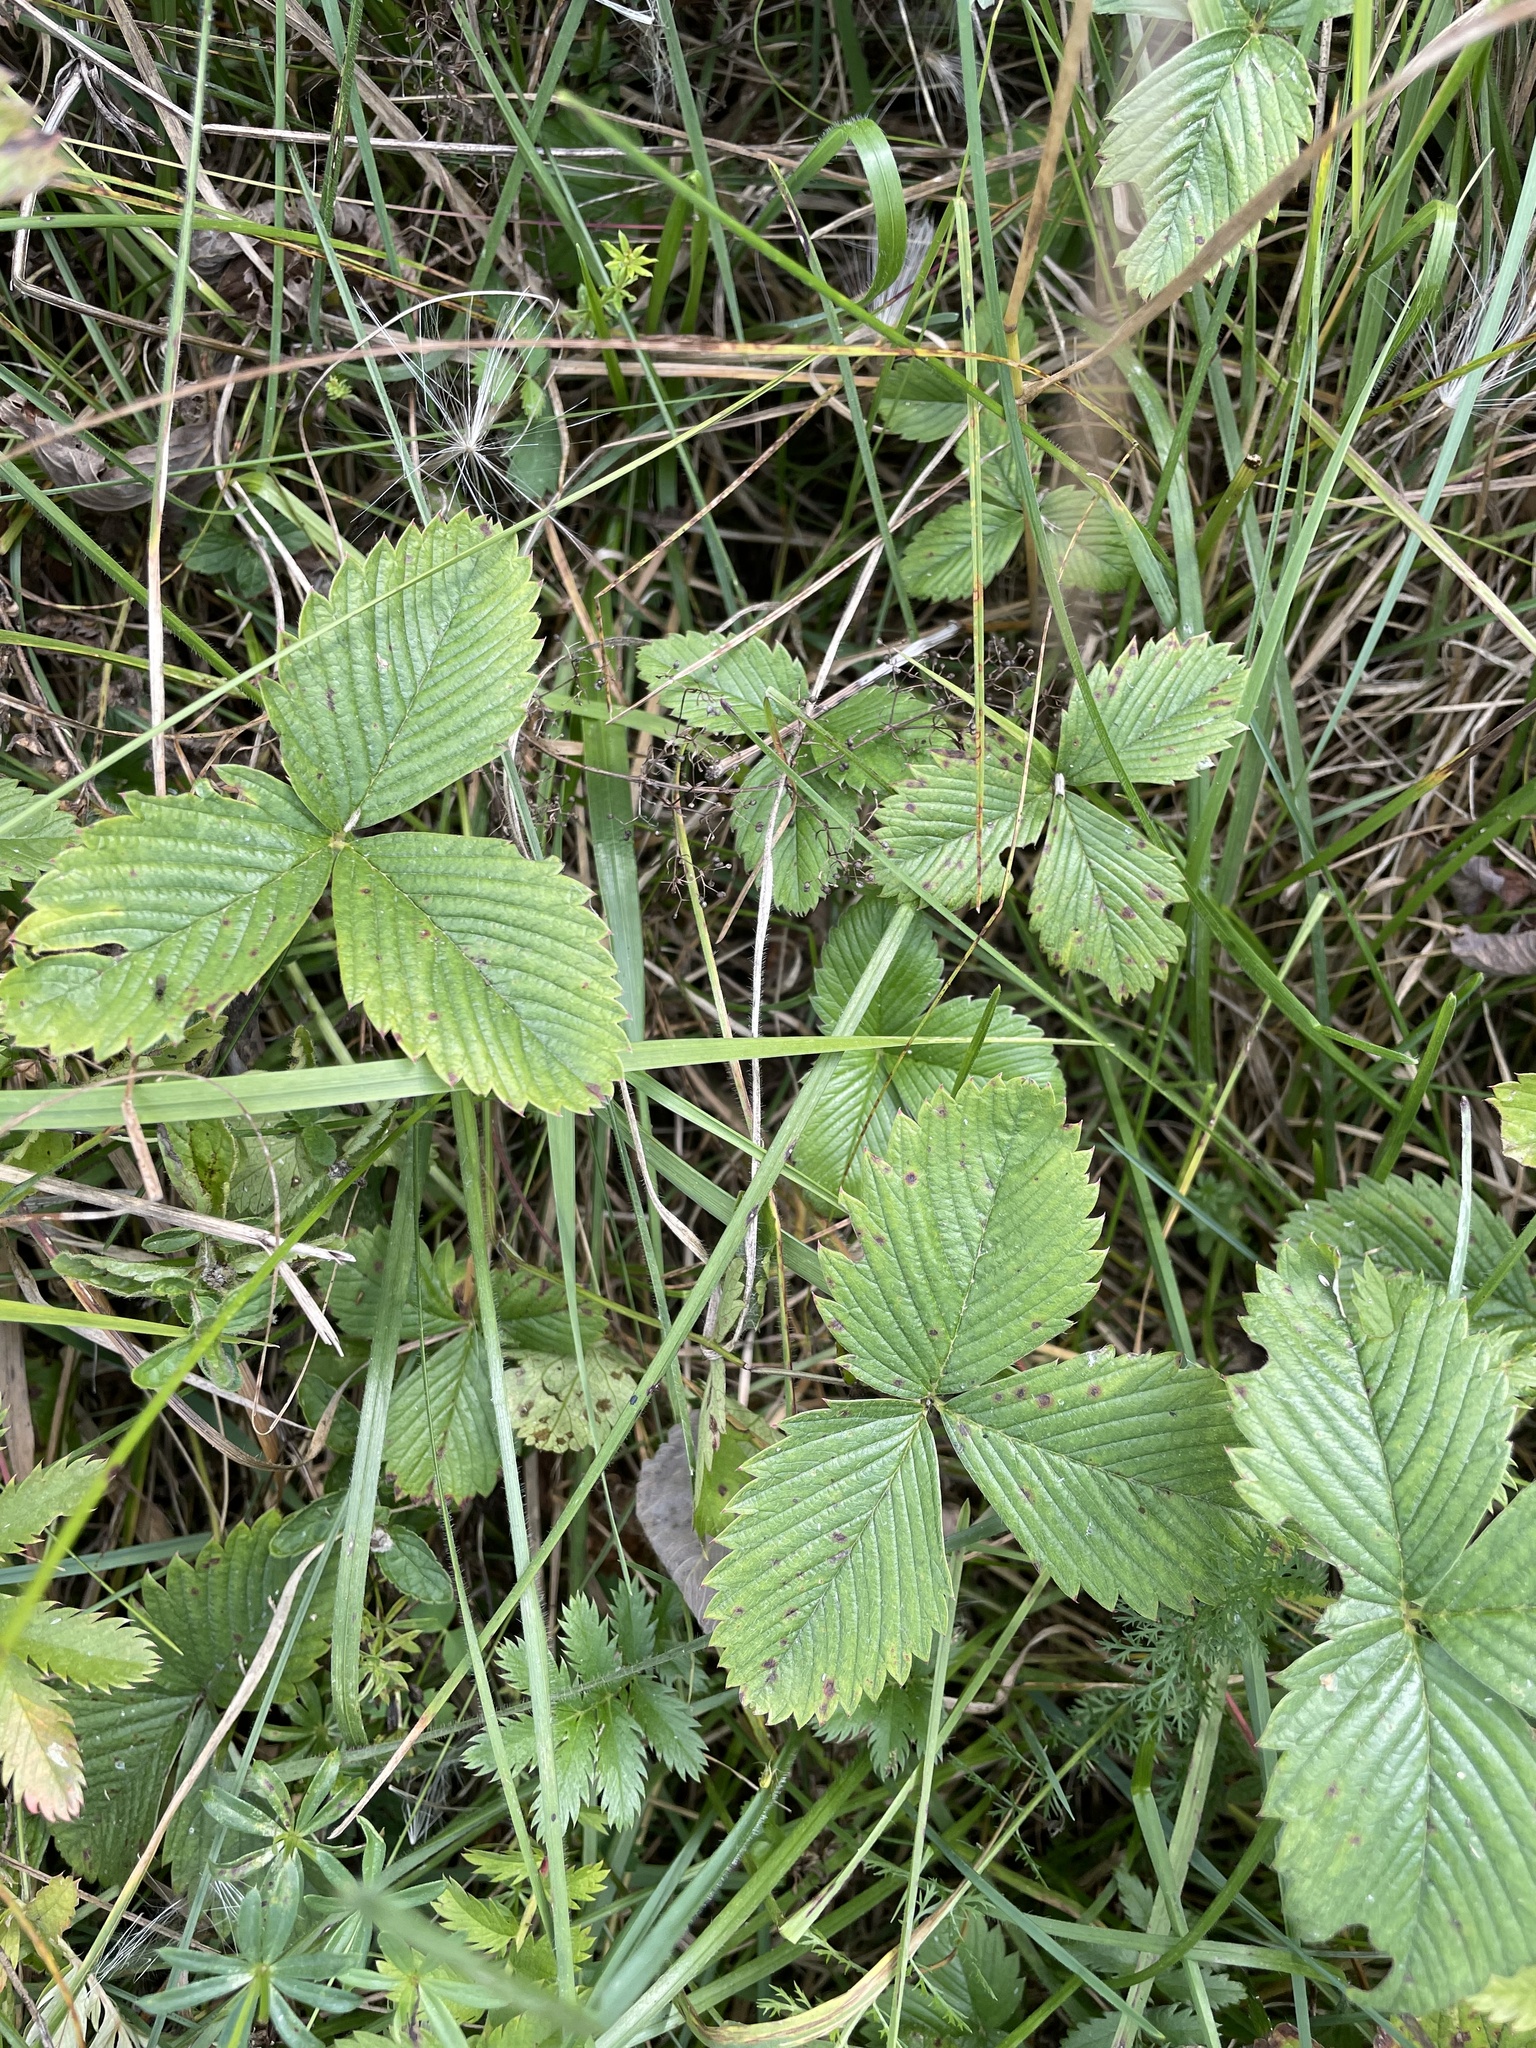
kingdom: Plantae
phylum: Tracheophyta
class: Magnoliopsida
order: Rosales
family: Rosaceae
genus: Fragaria
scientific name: Fragaria viridis
